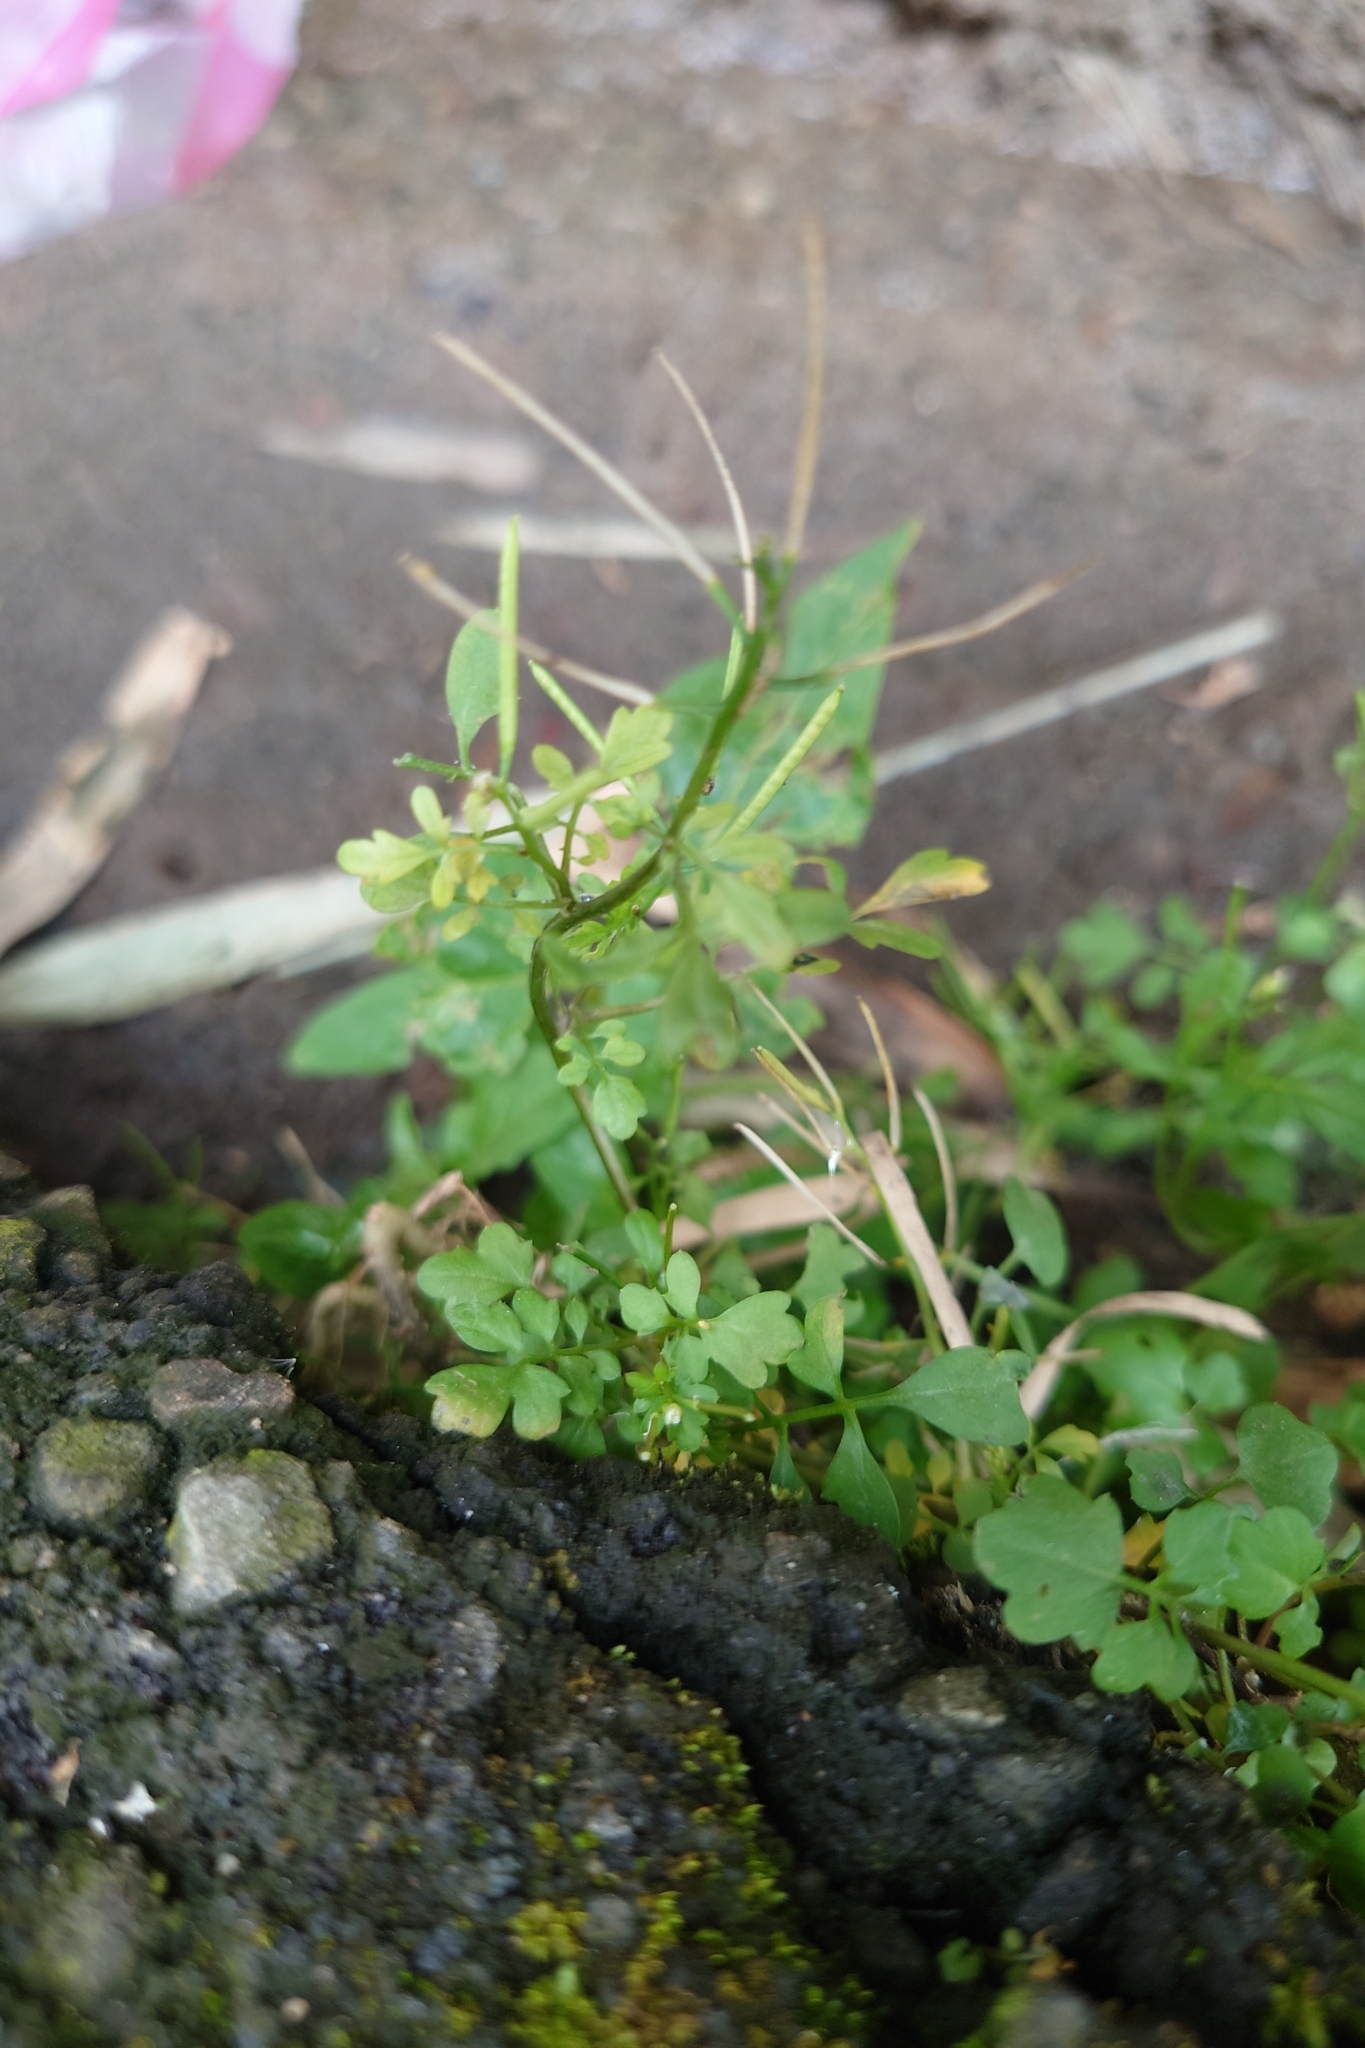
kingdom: Plantae
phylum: Tracheophyta
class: Magnoliopsida
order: Brassicales
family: Brassicaceae
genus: Cardamine
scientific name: Cardamine flexuosa
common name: Woodland bittercress
